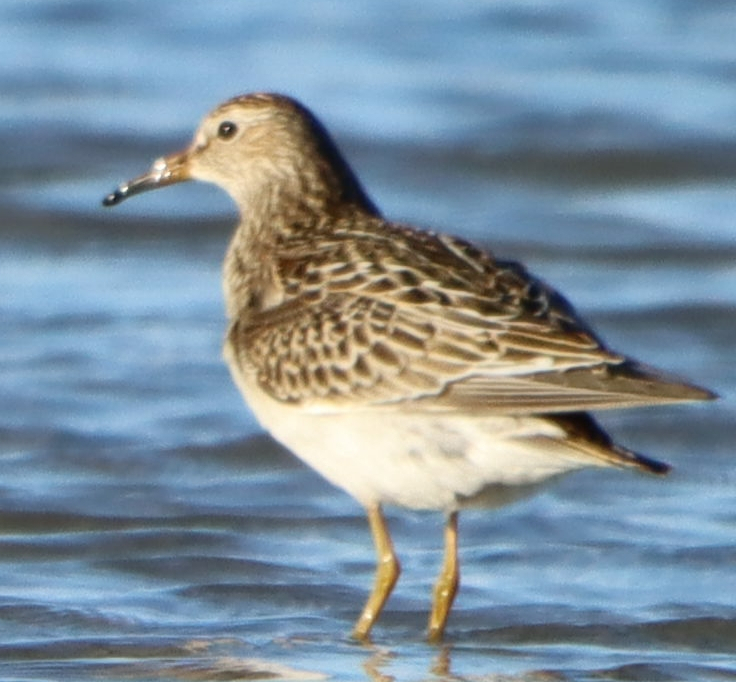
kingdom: Animalia
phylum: Chordata
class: Aves
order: Charadriiformes
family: Scolopacidae
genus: Calidris
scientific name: Calidris melanotos
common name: Pectoral sandpiper
